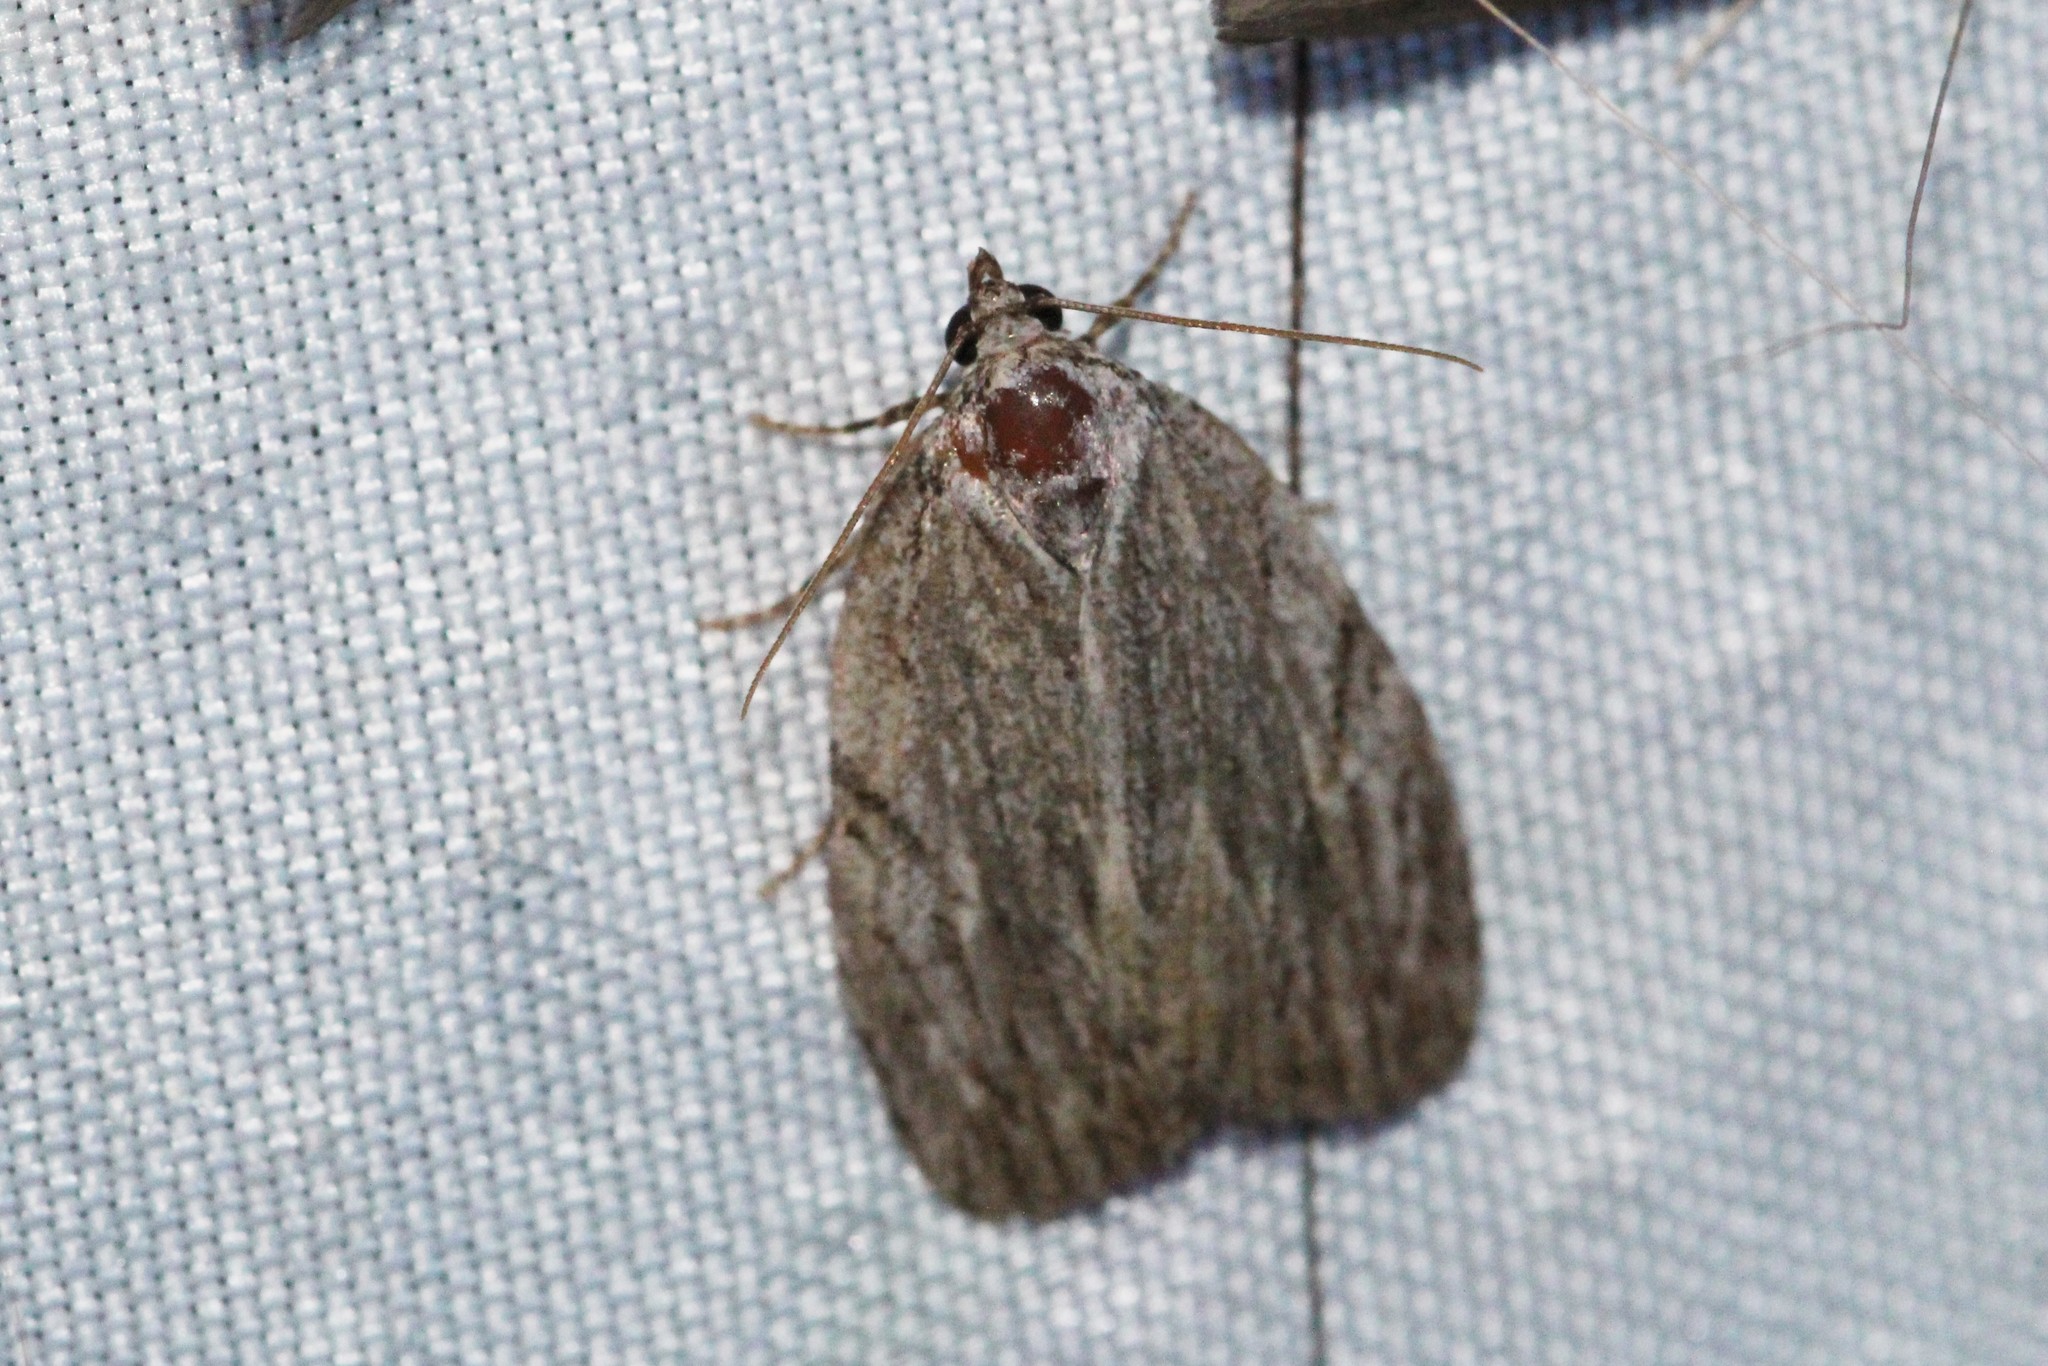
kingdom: Animalia
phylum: Arthropoda
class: Insecta
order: Lepidoptera
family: Noctuidae
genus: Balsa
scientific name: Balsa tristrigella
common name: Three-lined balsa moth
